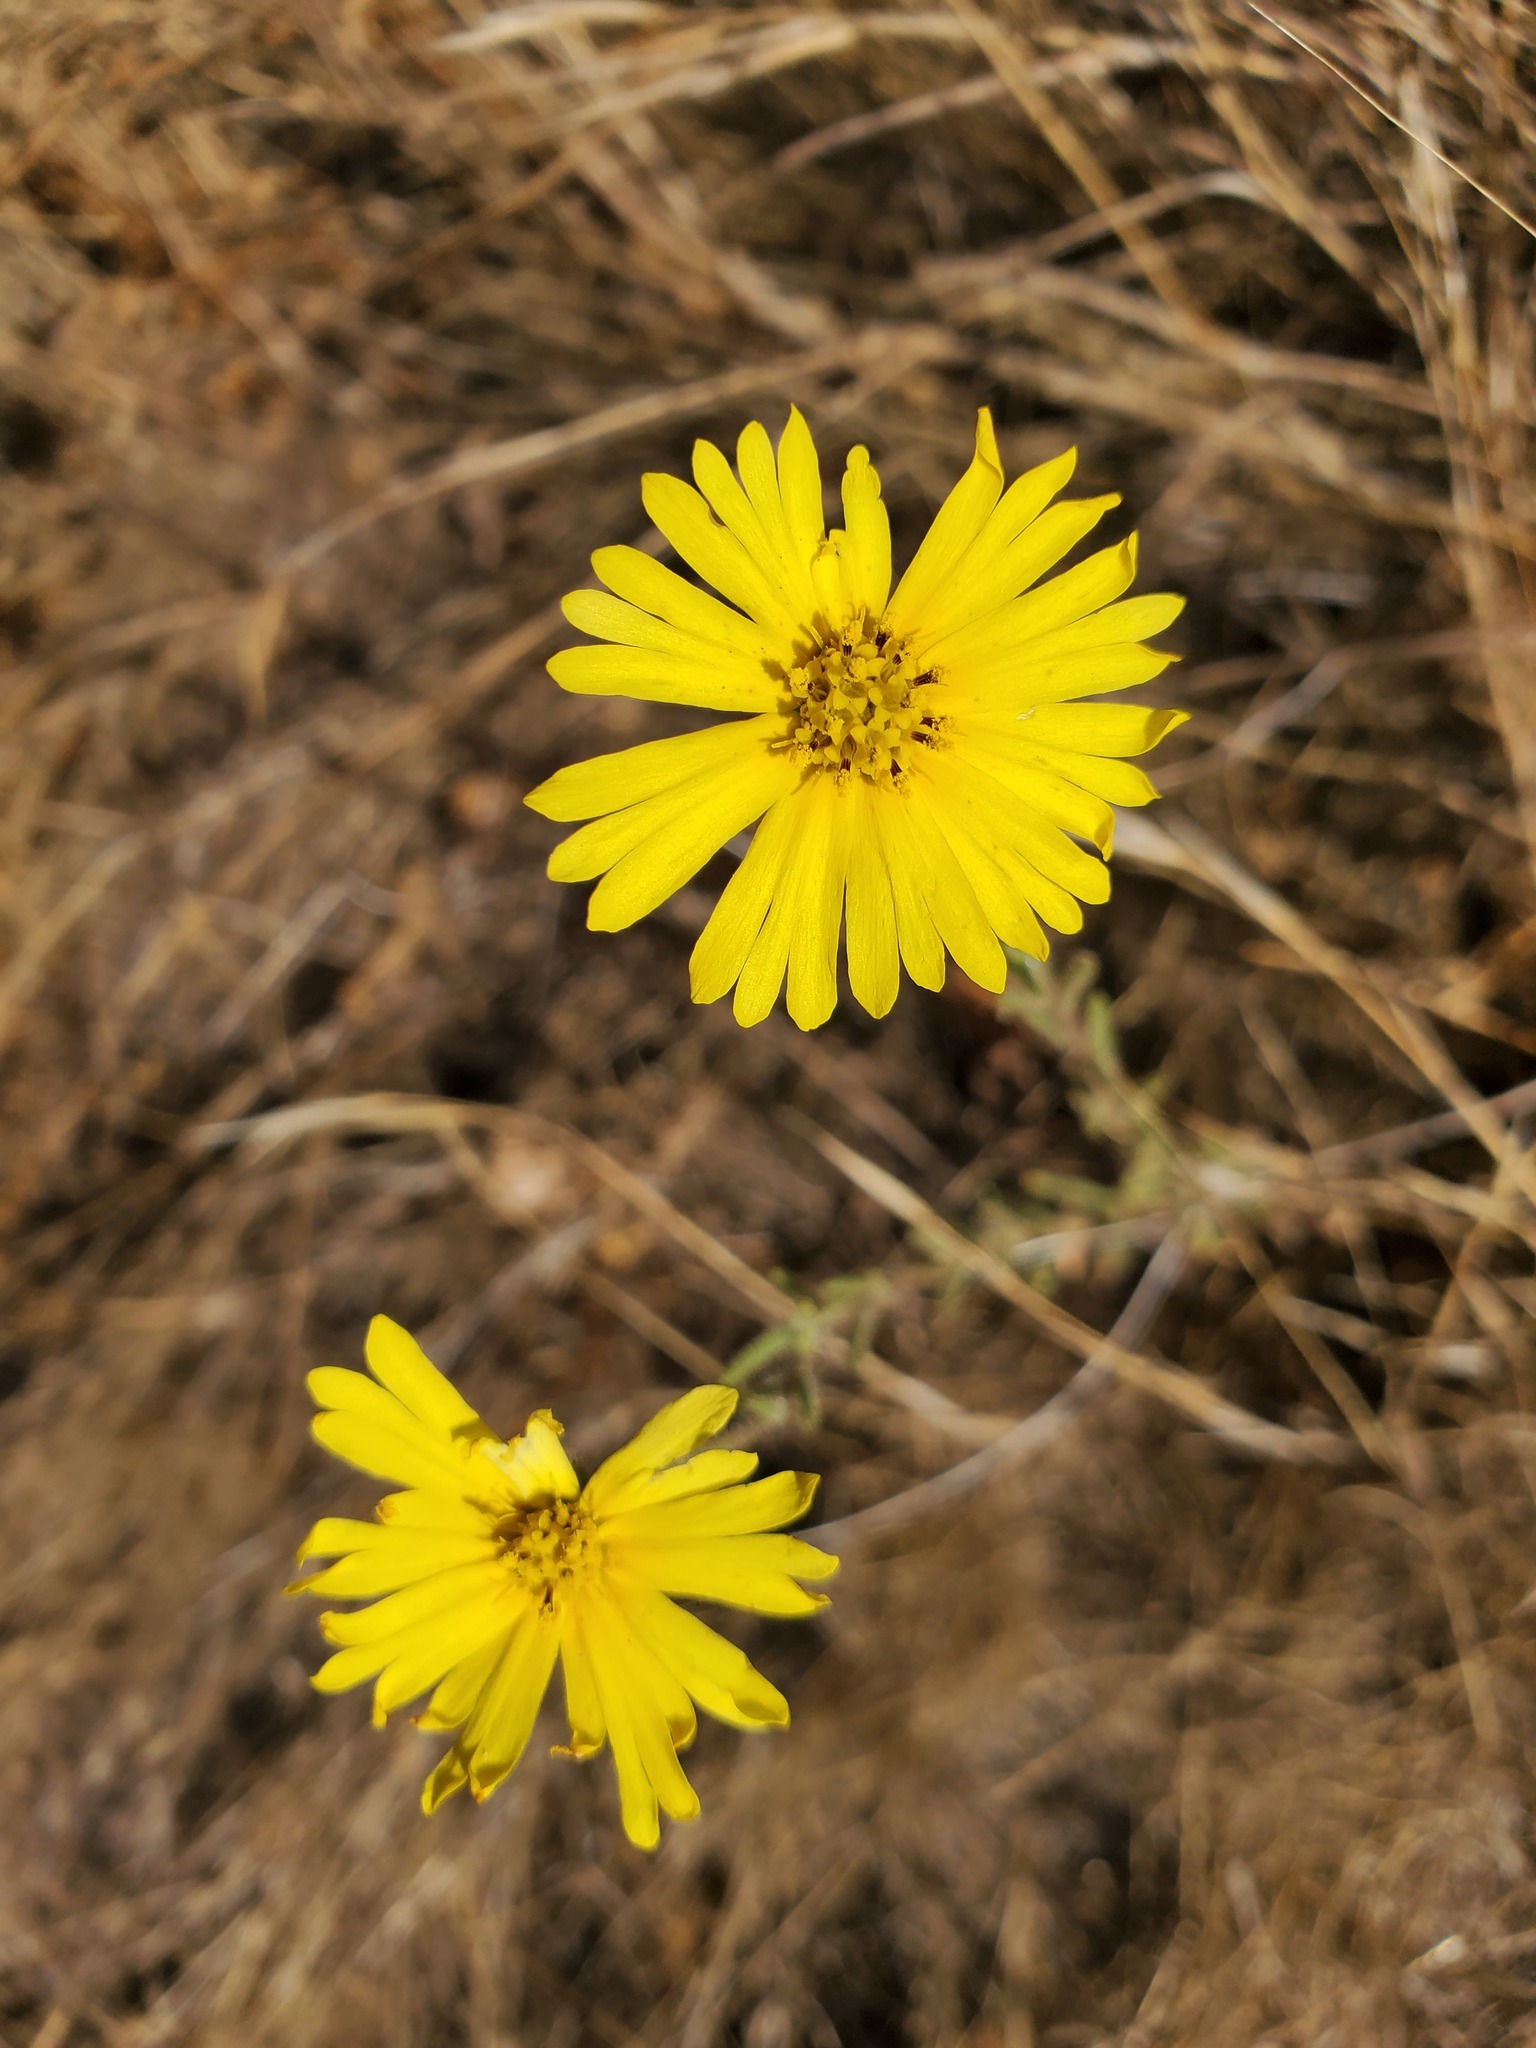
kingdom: Plantae
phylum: Tracheophyta
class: Magnoliopsida
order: Asterales
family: Asteraceae
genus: Madia
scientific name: Madia elegans
